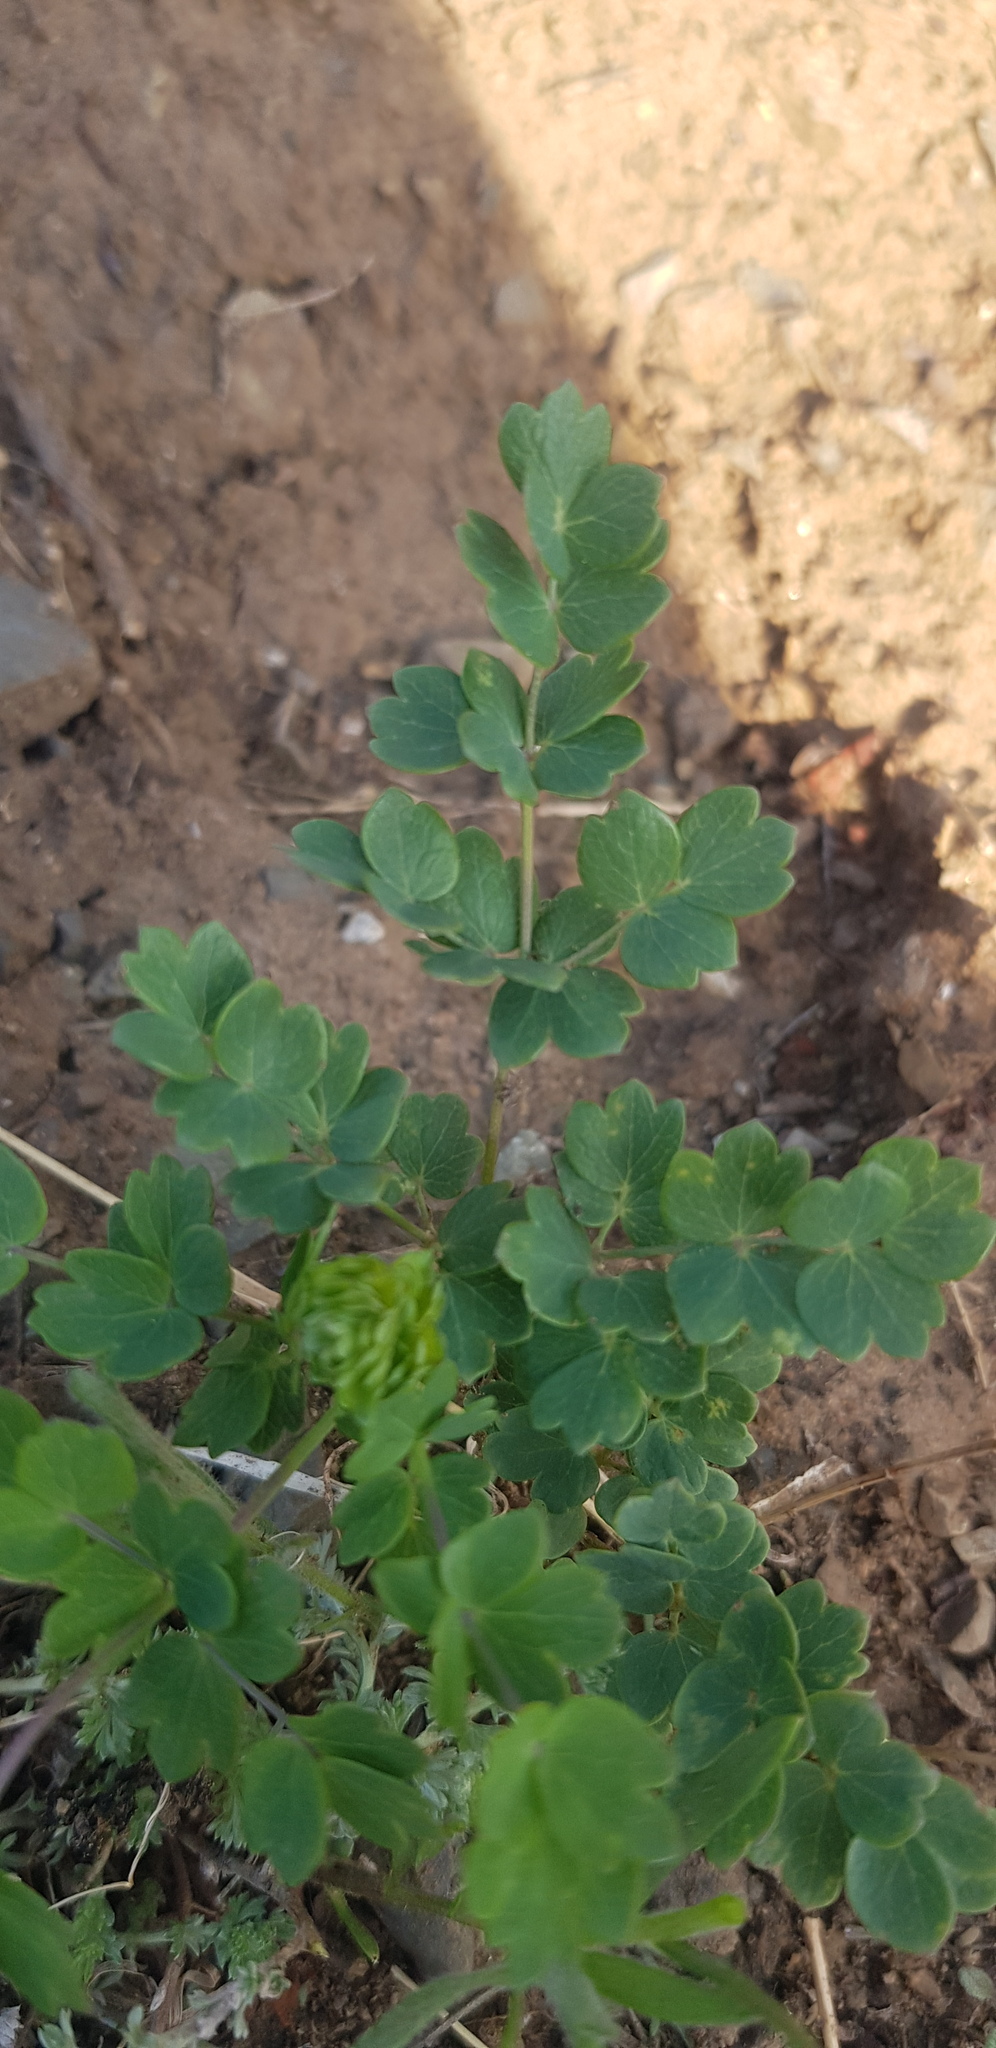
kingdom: Plantae
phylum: Tracheophyta
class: Magnoliopsida
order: Ranunculales
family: Ranunculaceae
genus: Thalictrum
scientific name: Thalictrum minus
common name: Lesser meadow-rue
